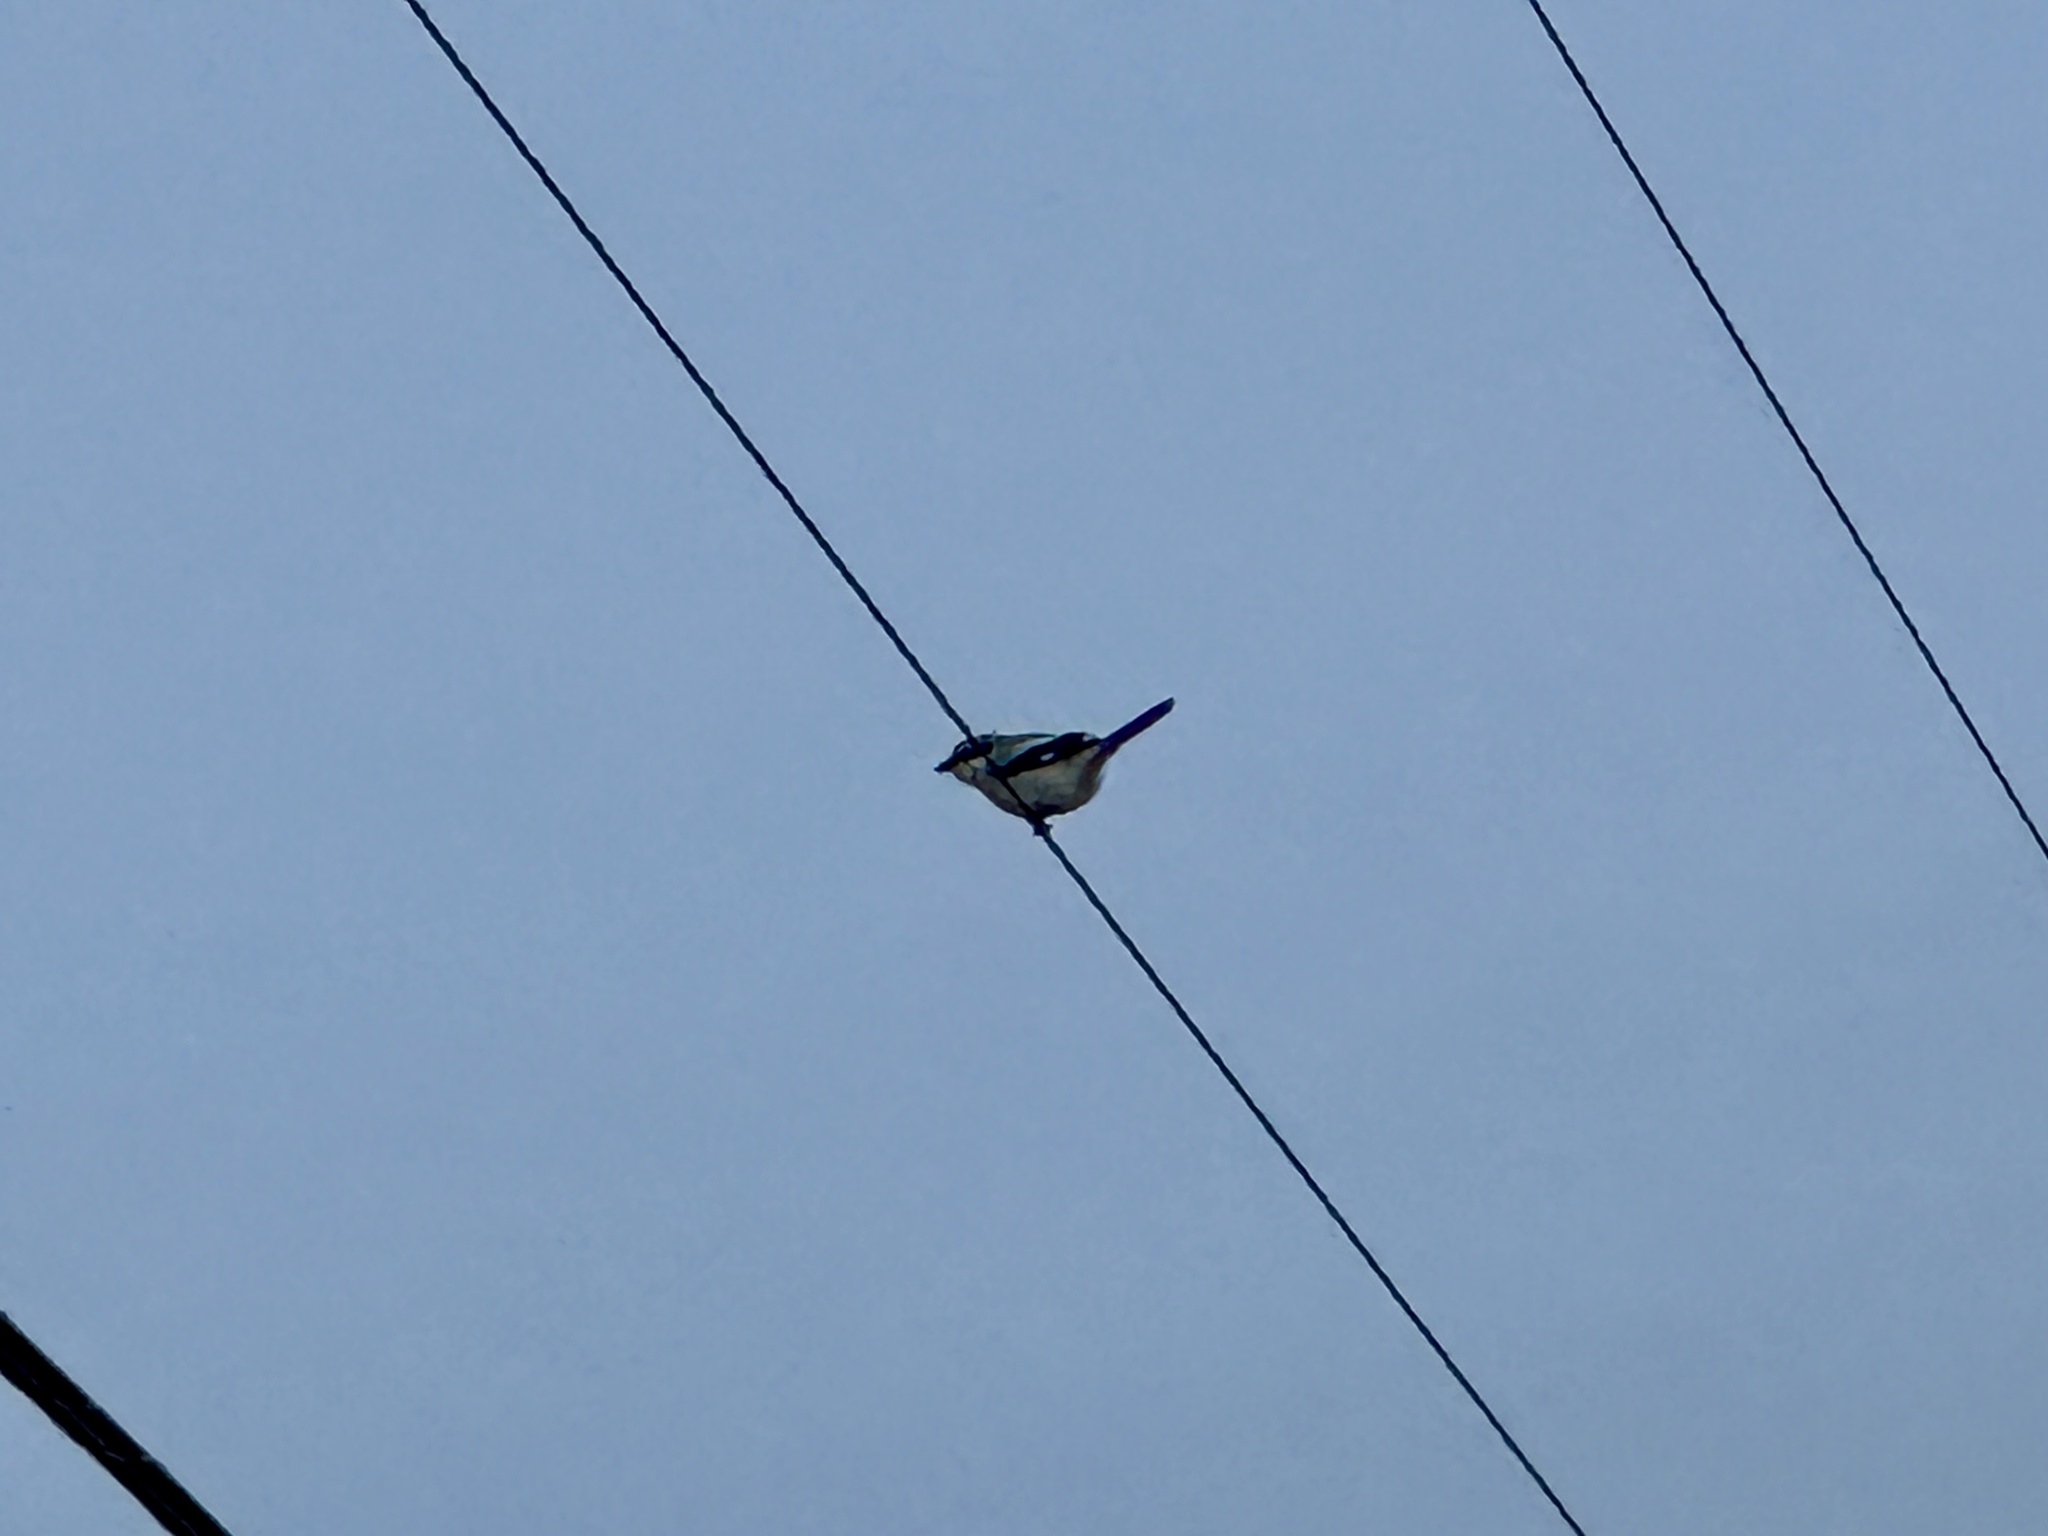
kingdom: Animalia
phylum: Chordata
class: Aves
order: Passeriformes
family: Laniidae
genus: Lanius
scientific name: Lanius ludovicianus
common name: Loggerhead shrike
